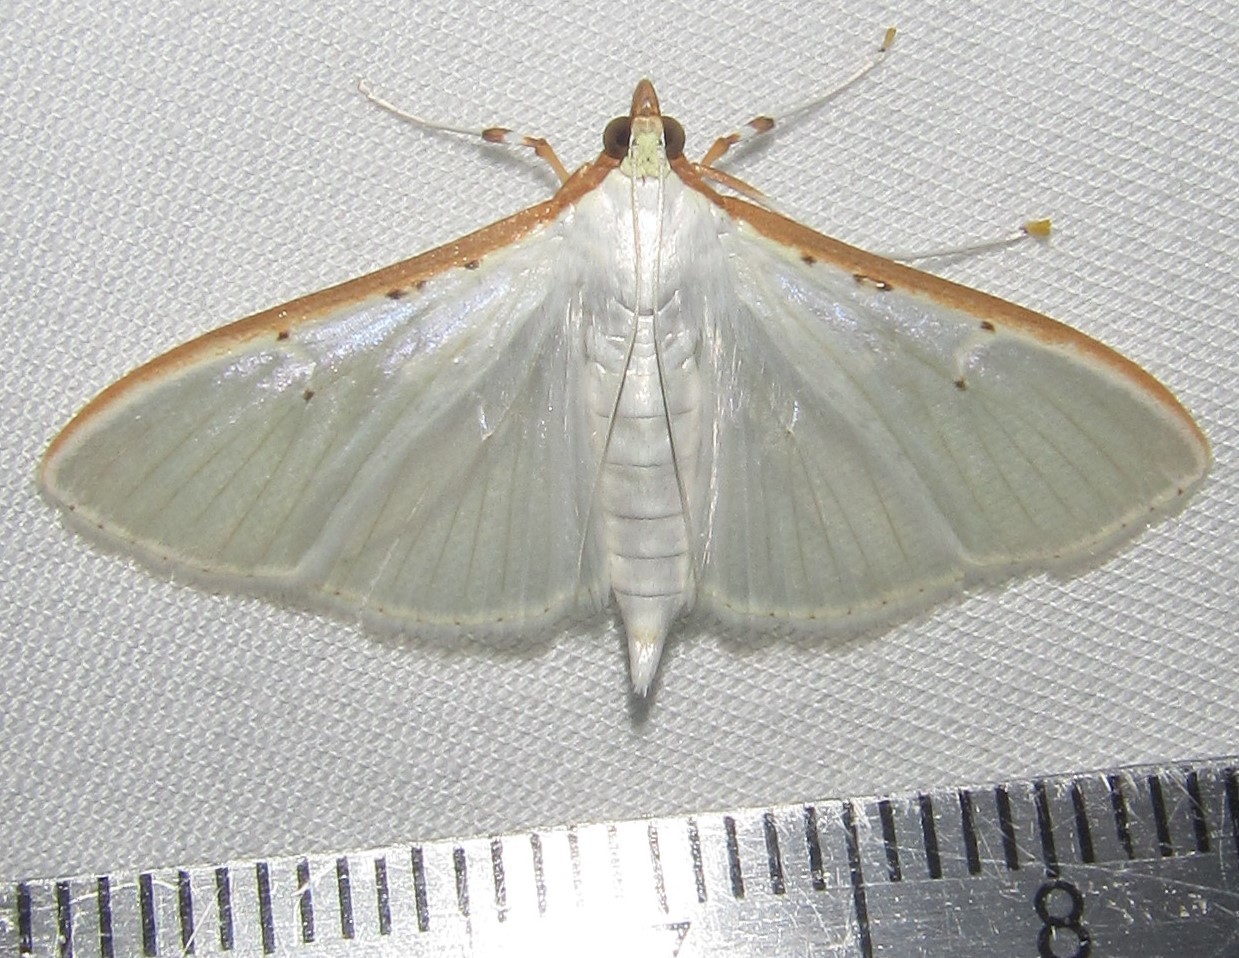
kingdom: Animalia
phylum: Arthropoda
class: Insecta
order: Lepidoptera
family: Crambidae
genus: Palpita
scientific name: Palpita vitrealis
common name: Olive-tree pearl
